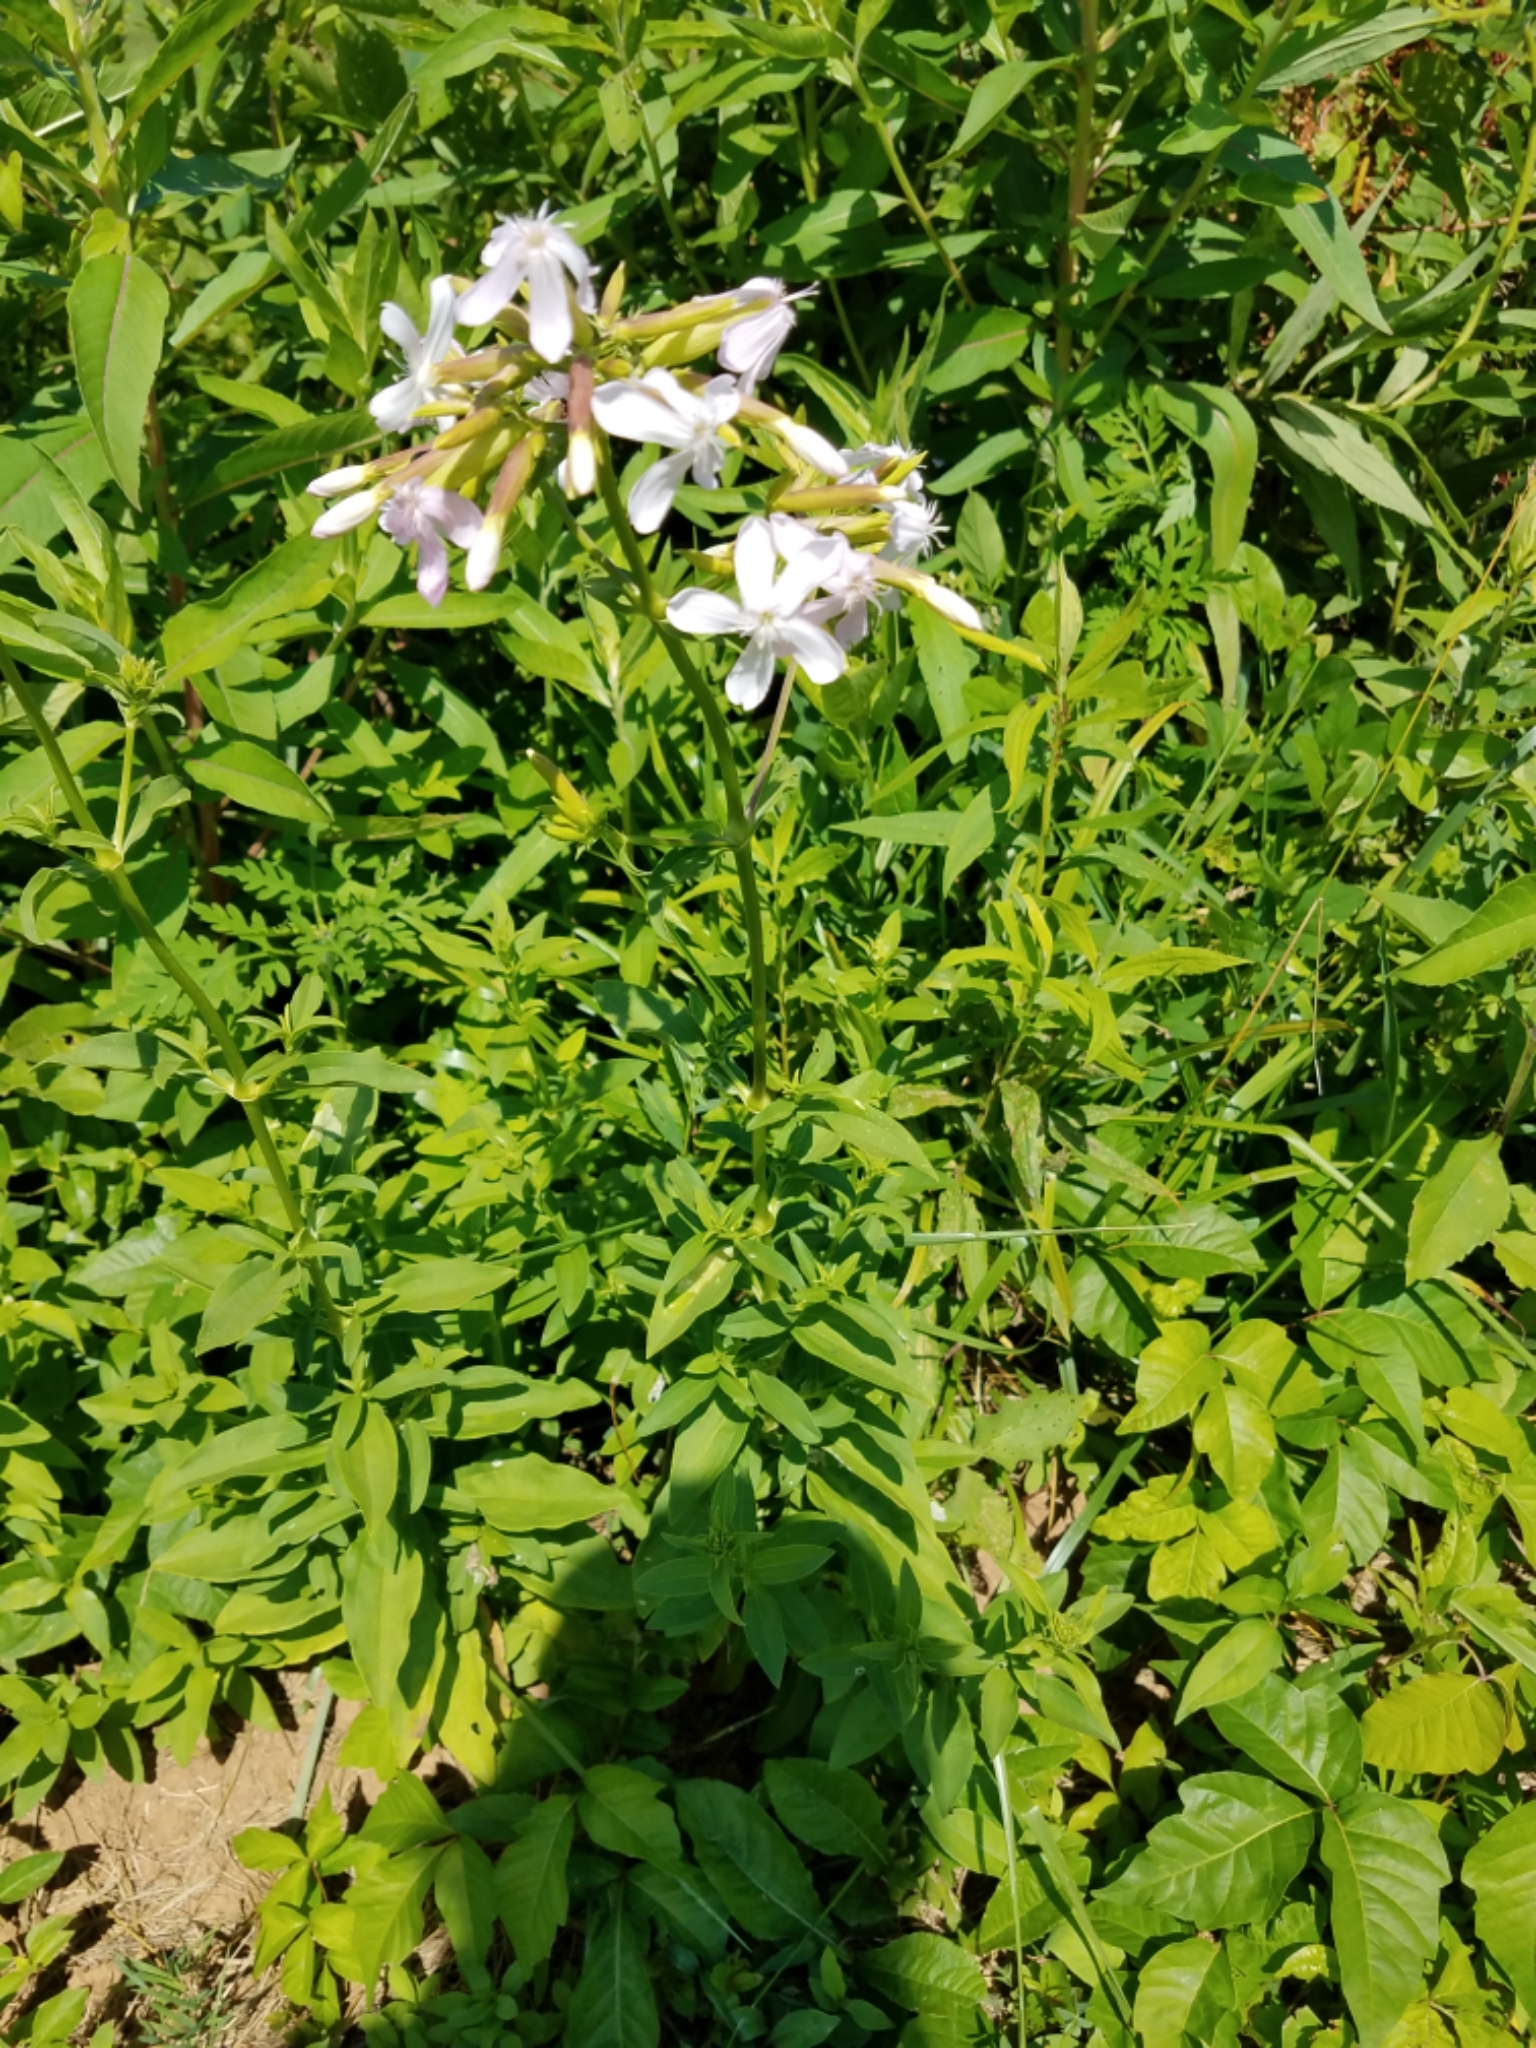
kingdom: Plantae
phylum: Tracheophyta
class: Magnoliopsida
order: Caryophyllales
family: Caryophyllaceae
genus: Saponaria
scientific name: Saponaria officinalis
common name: Soapwort
